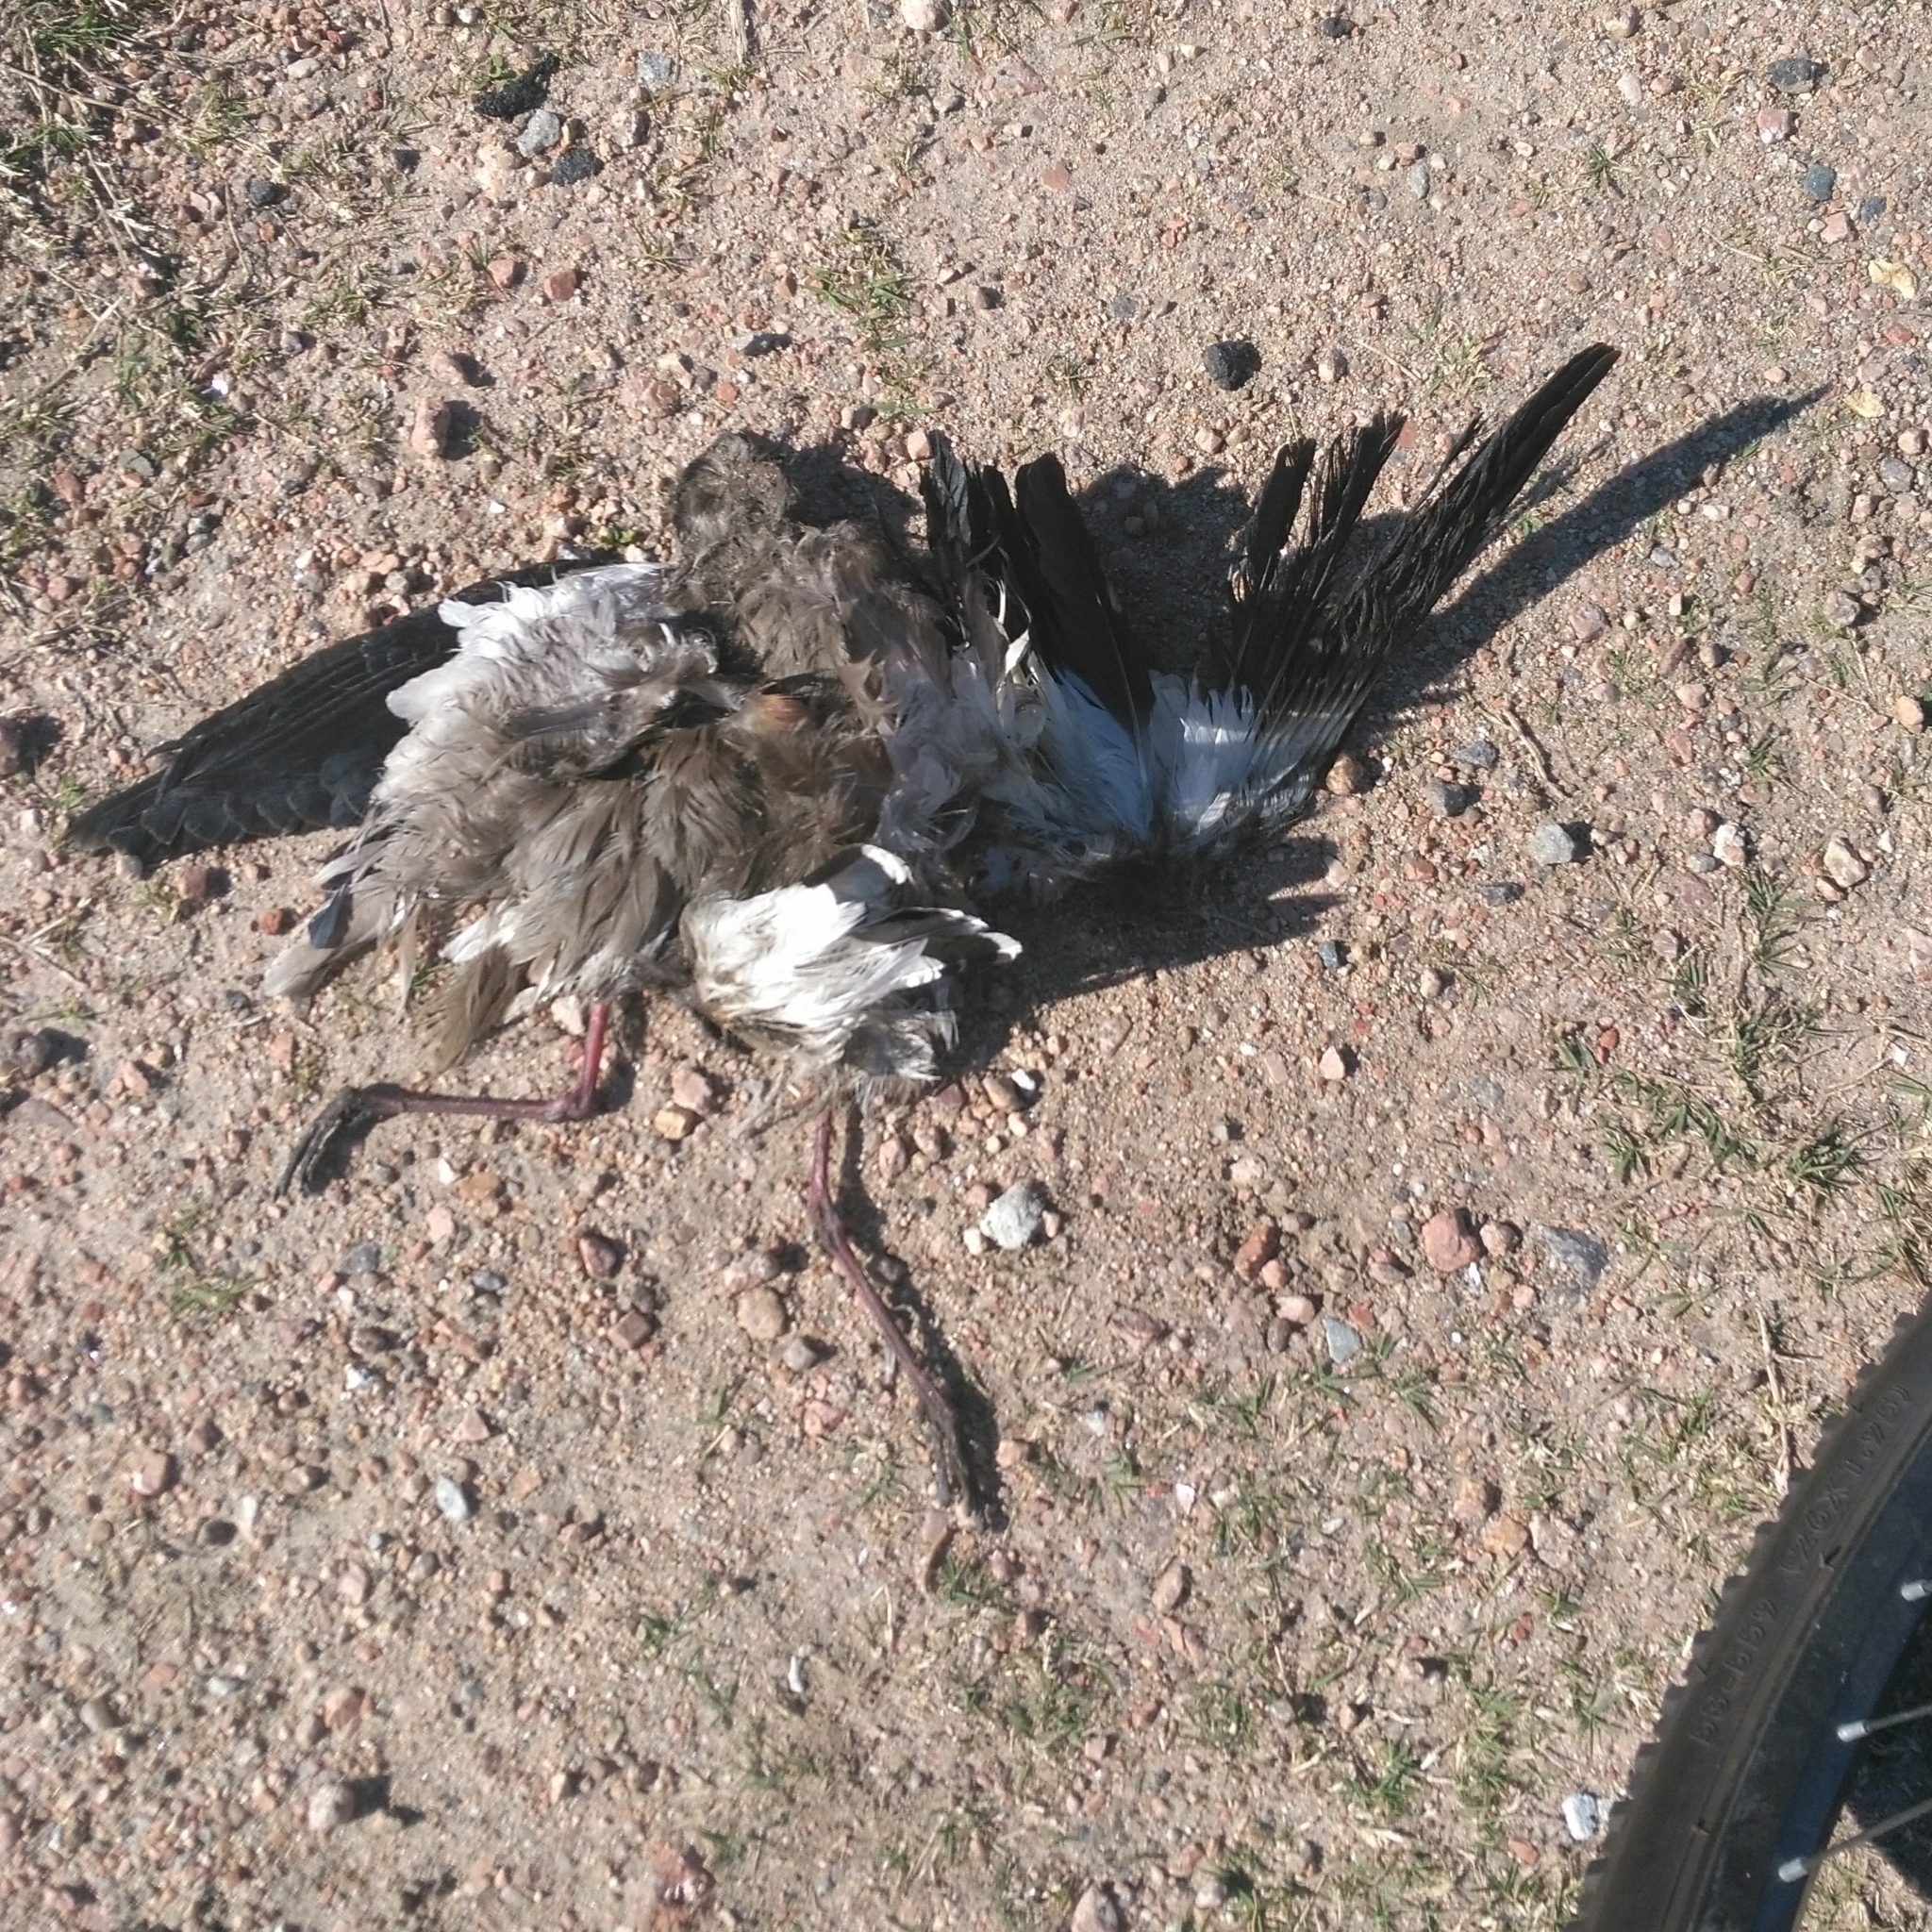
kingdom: Animalia
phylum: Chordata
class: Aves
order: Charadriiformes
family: Charadriidae
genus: Vanellus
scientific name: Vanellus chilensis
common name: Southern lapwing
